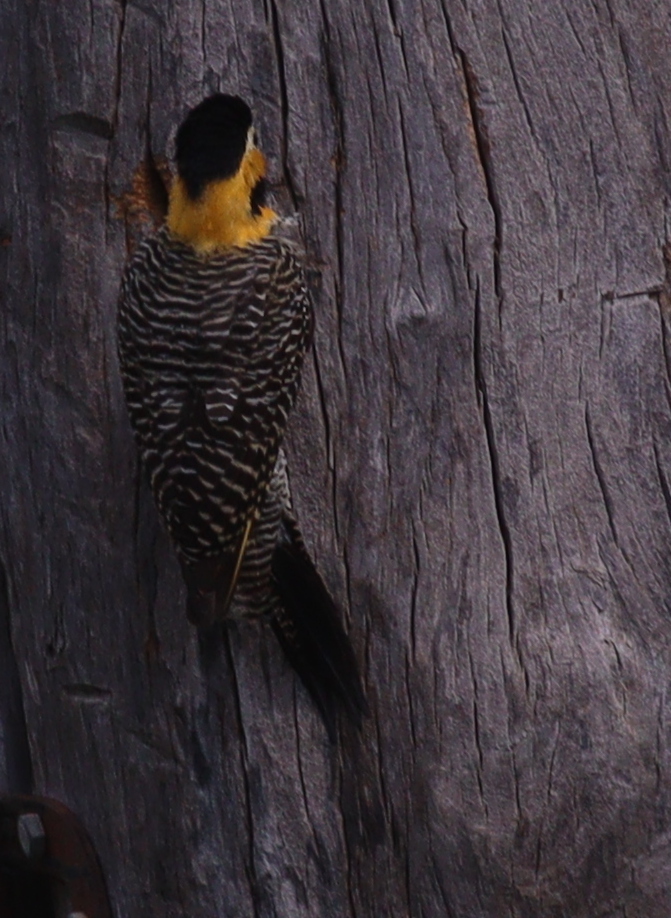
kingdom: Animalia
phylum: Chordata
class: Aves
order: Piciformes
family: Picidae
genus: Colaptes
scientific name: Colaptes campestris
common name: Campo flicker
